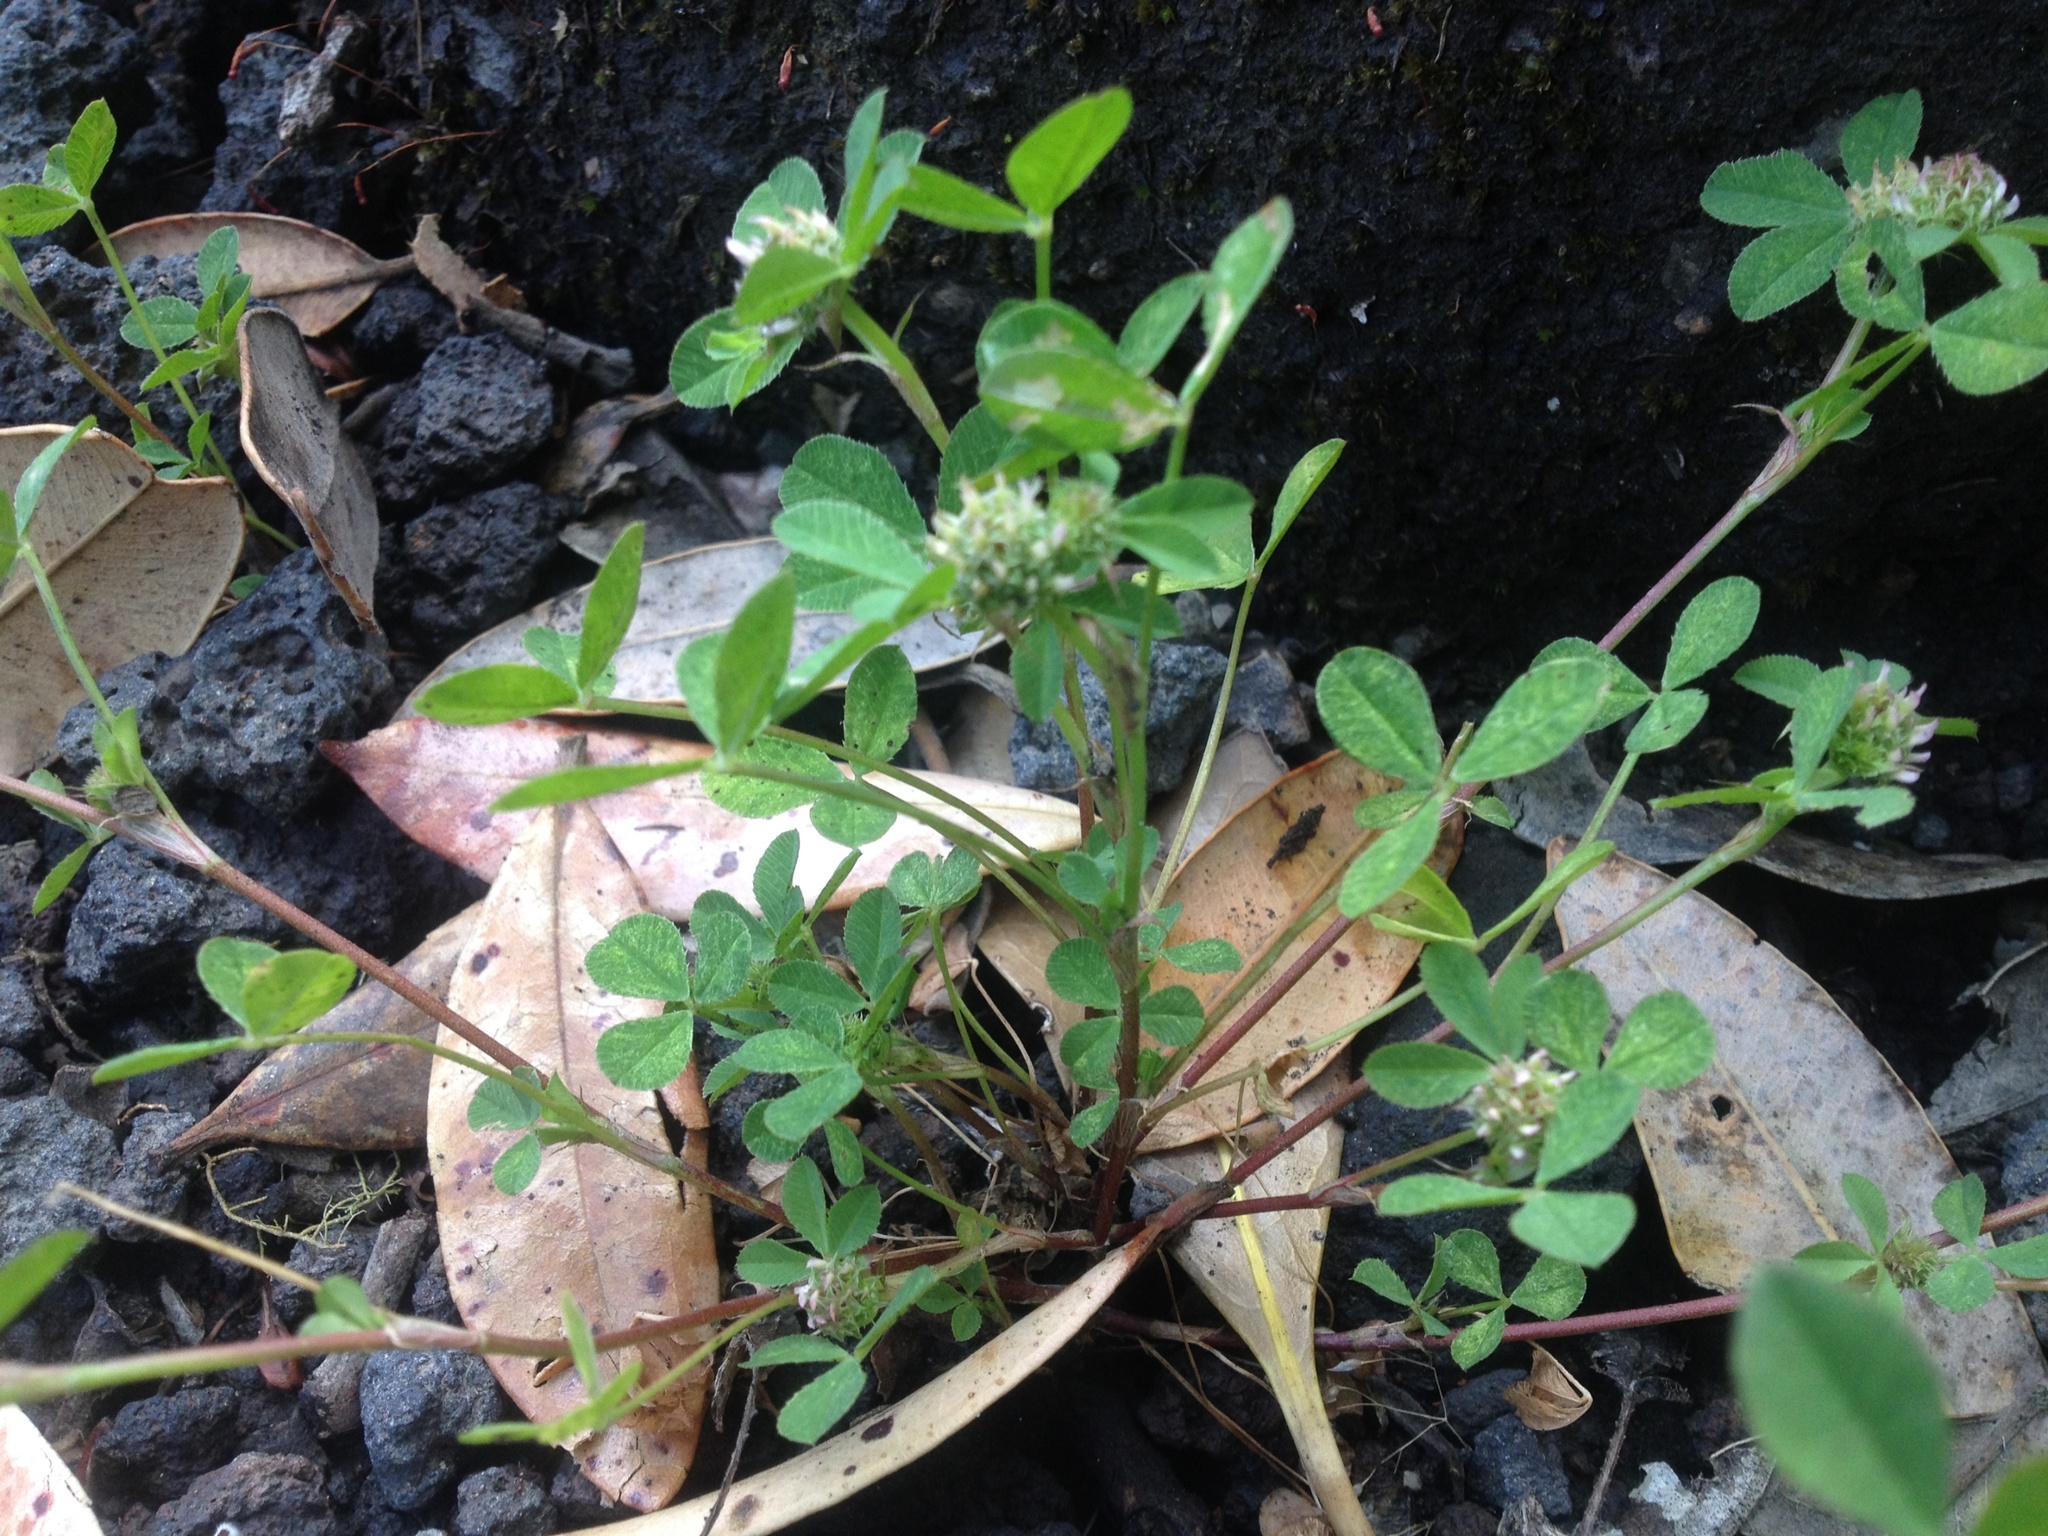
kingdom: Plantae
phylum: Tracheophyta
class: Magnoliopsida
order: Fabales
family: Fabaceae
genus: Trifolium
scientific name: Trifolium glomeratum
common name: Clustered clover
